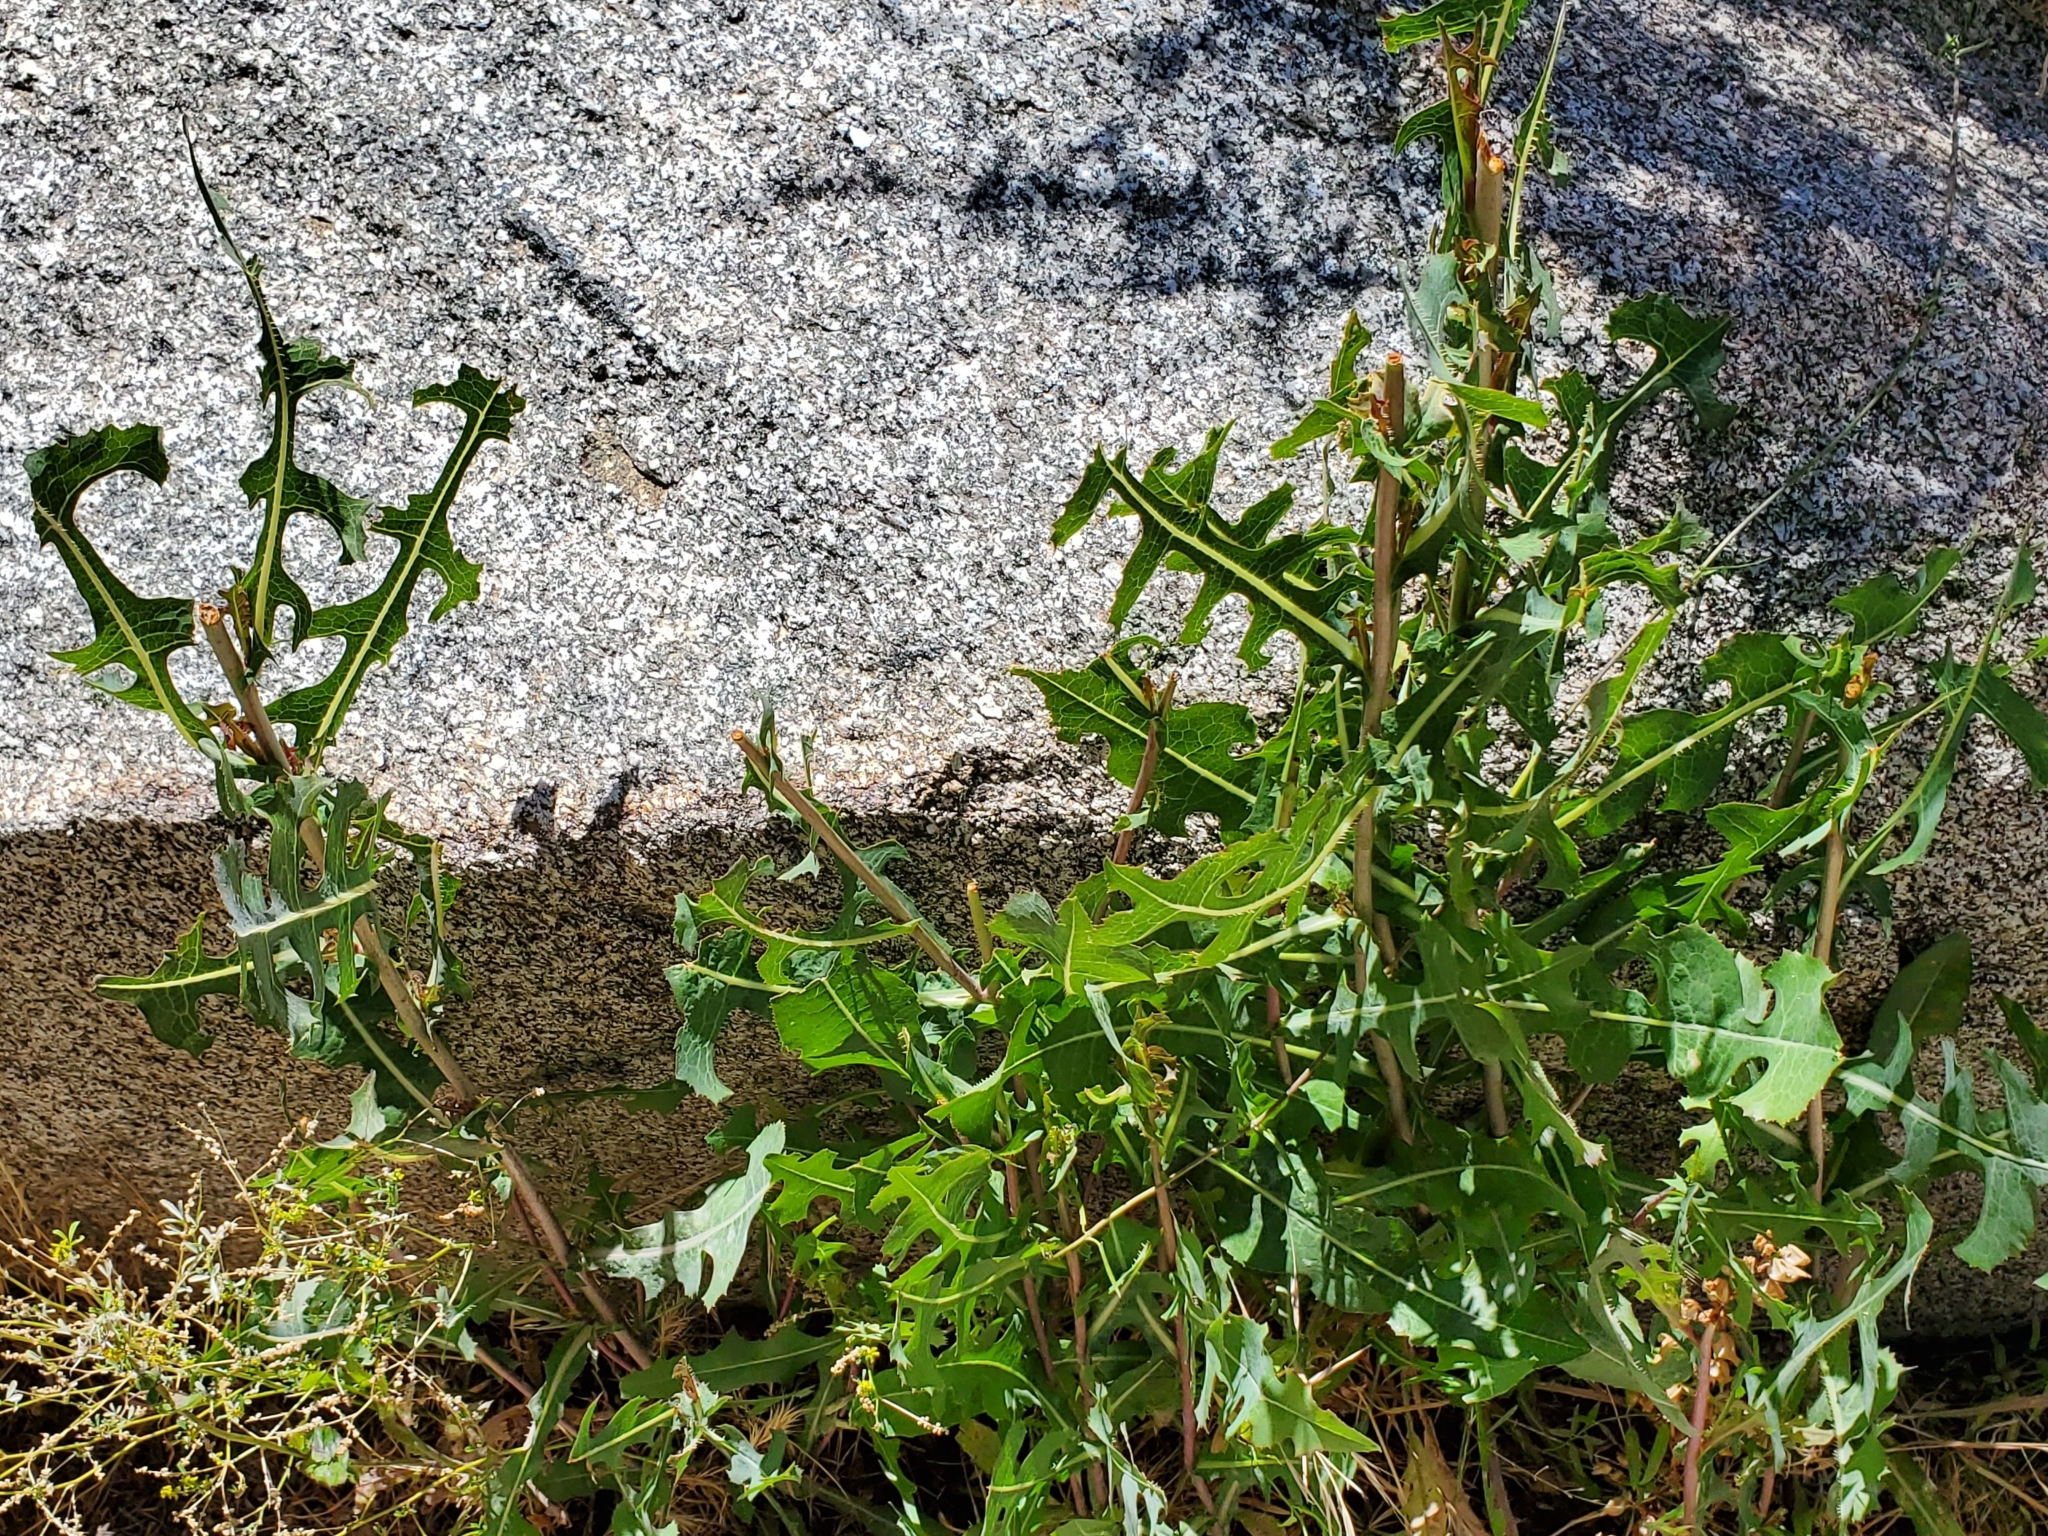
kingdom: Plantae
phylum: Tracheophyta
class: Magnoliopsida
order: Asterales
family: Asteraceae
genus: Lactuca
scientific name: Lactuca serriola
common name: Prickly lettuce
